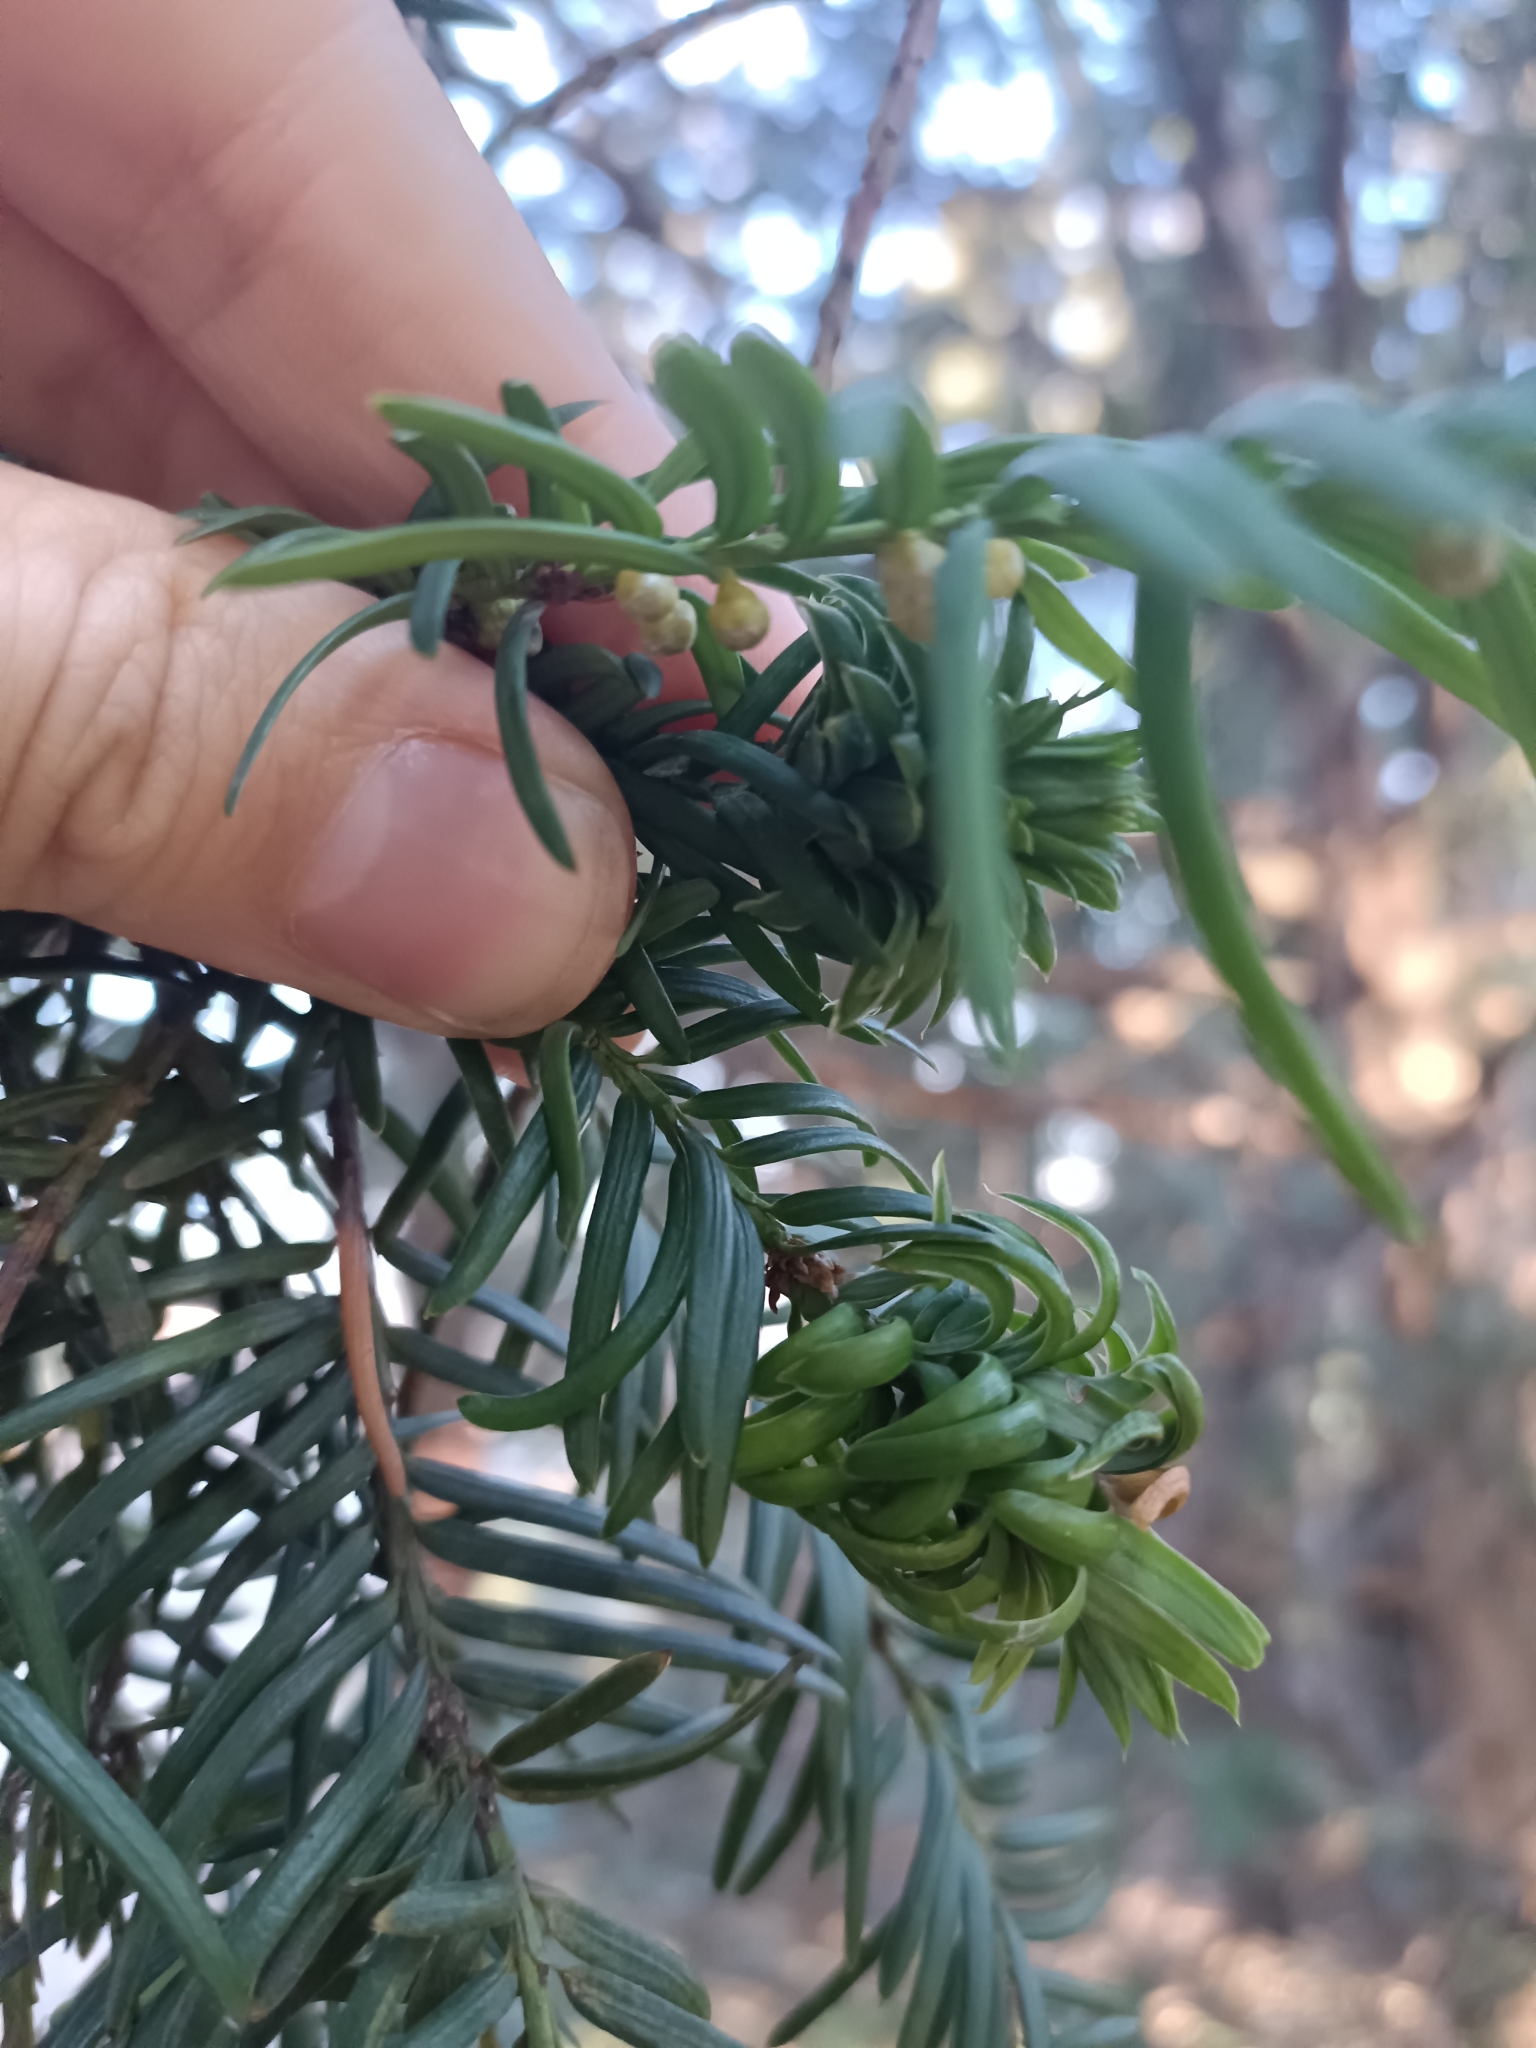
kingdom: Animalia
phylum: Arthropoda
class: Insecta
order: Diptera
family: Cecidomyiidae
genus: Taxomyia
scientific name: Taxomyia taxi
